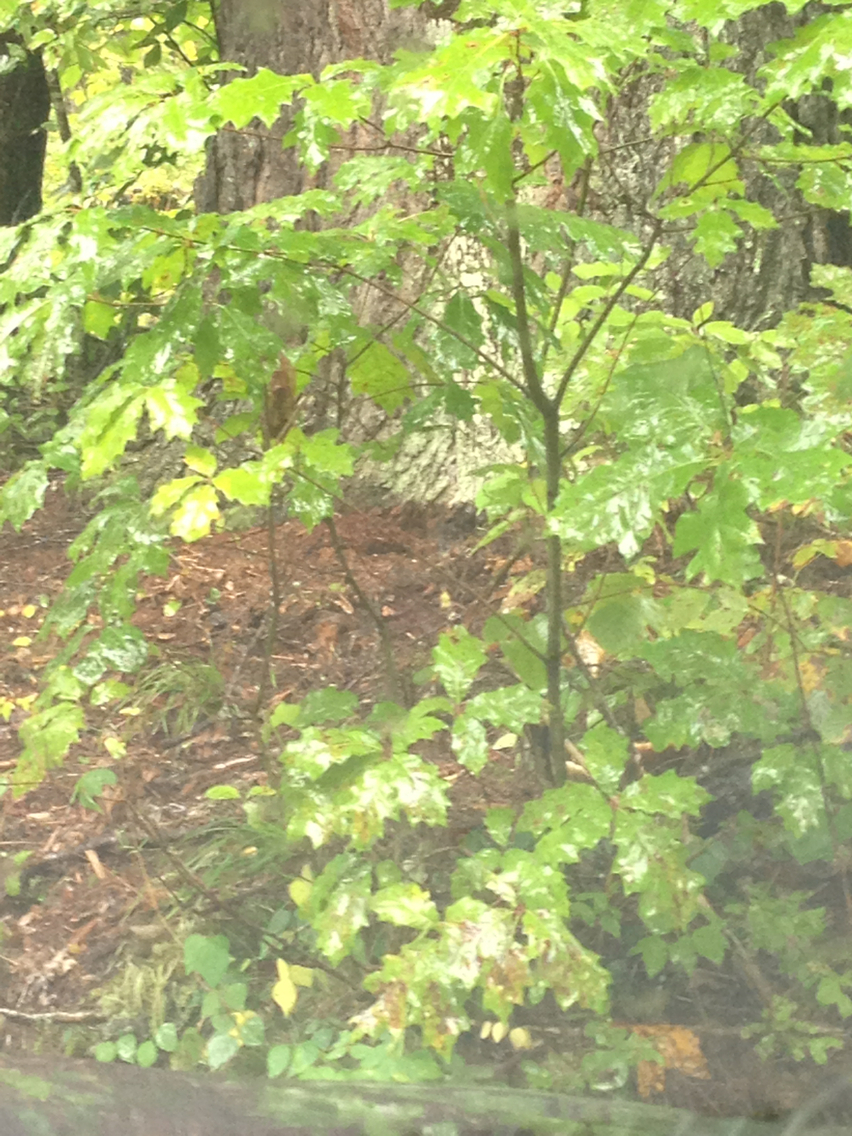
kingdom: Plantae
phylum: Tracheophyta
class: Magnoliopsida
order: Fagales
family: Fagaceae
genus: Quercus
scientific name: Quercus rubra
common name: Red oak
